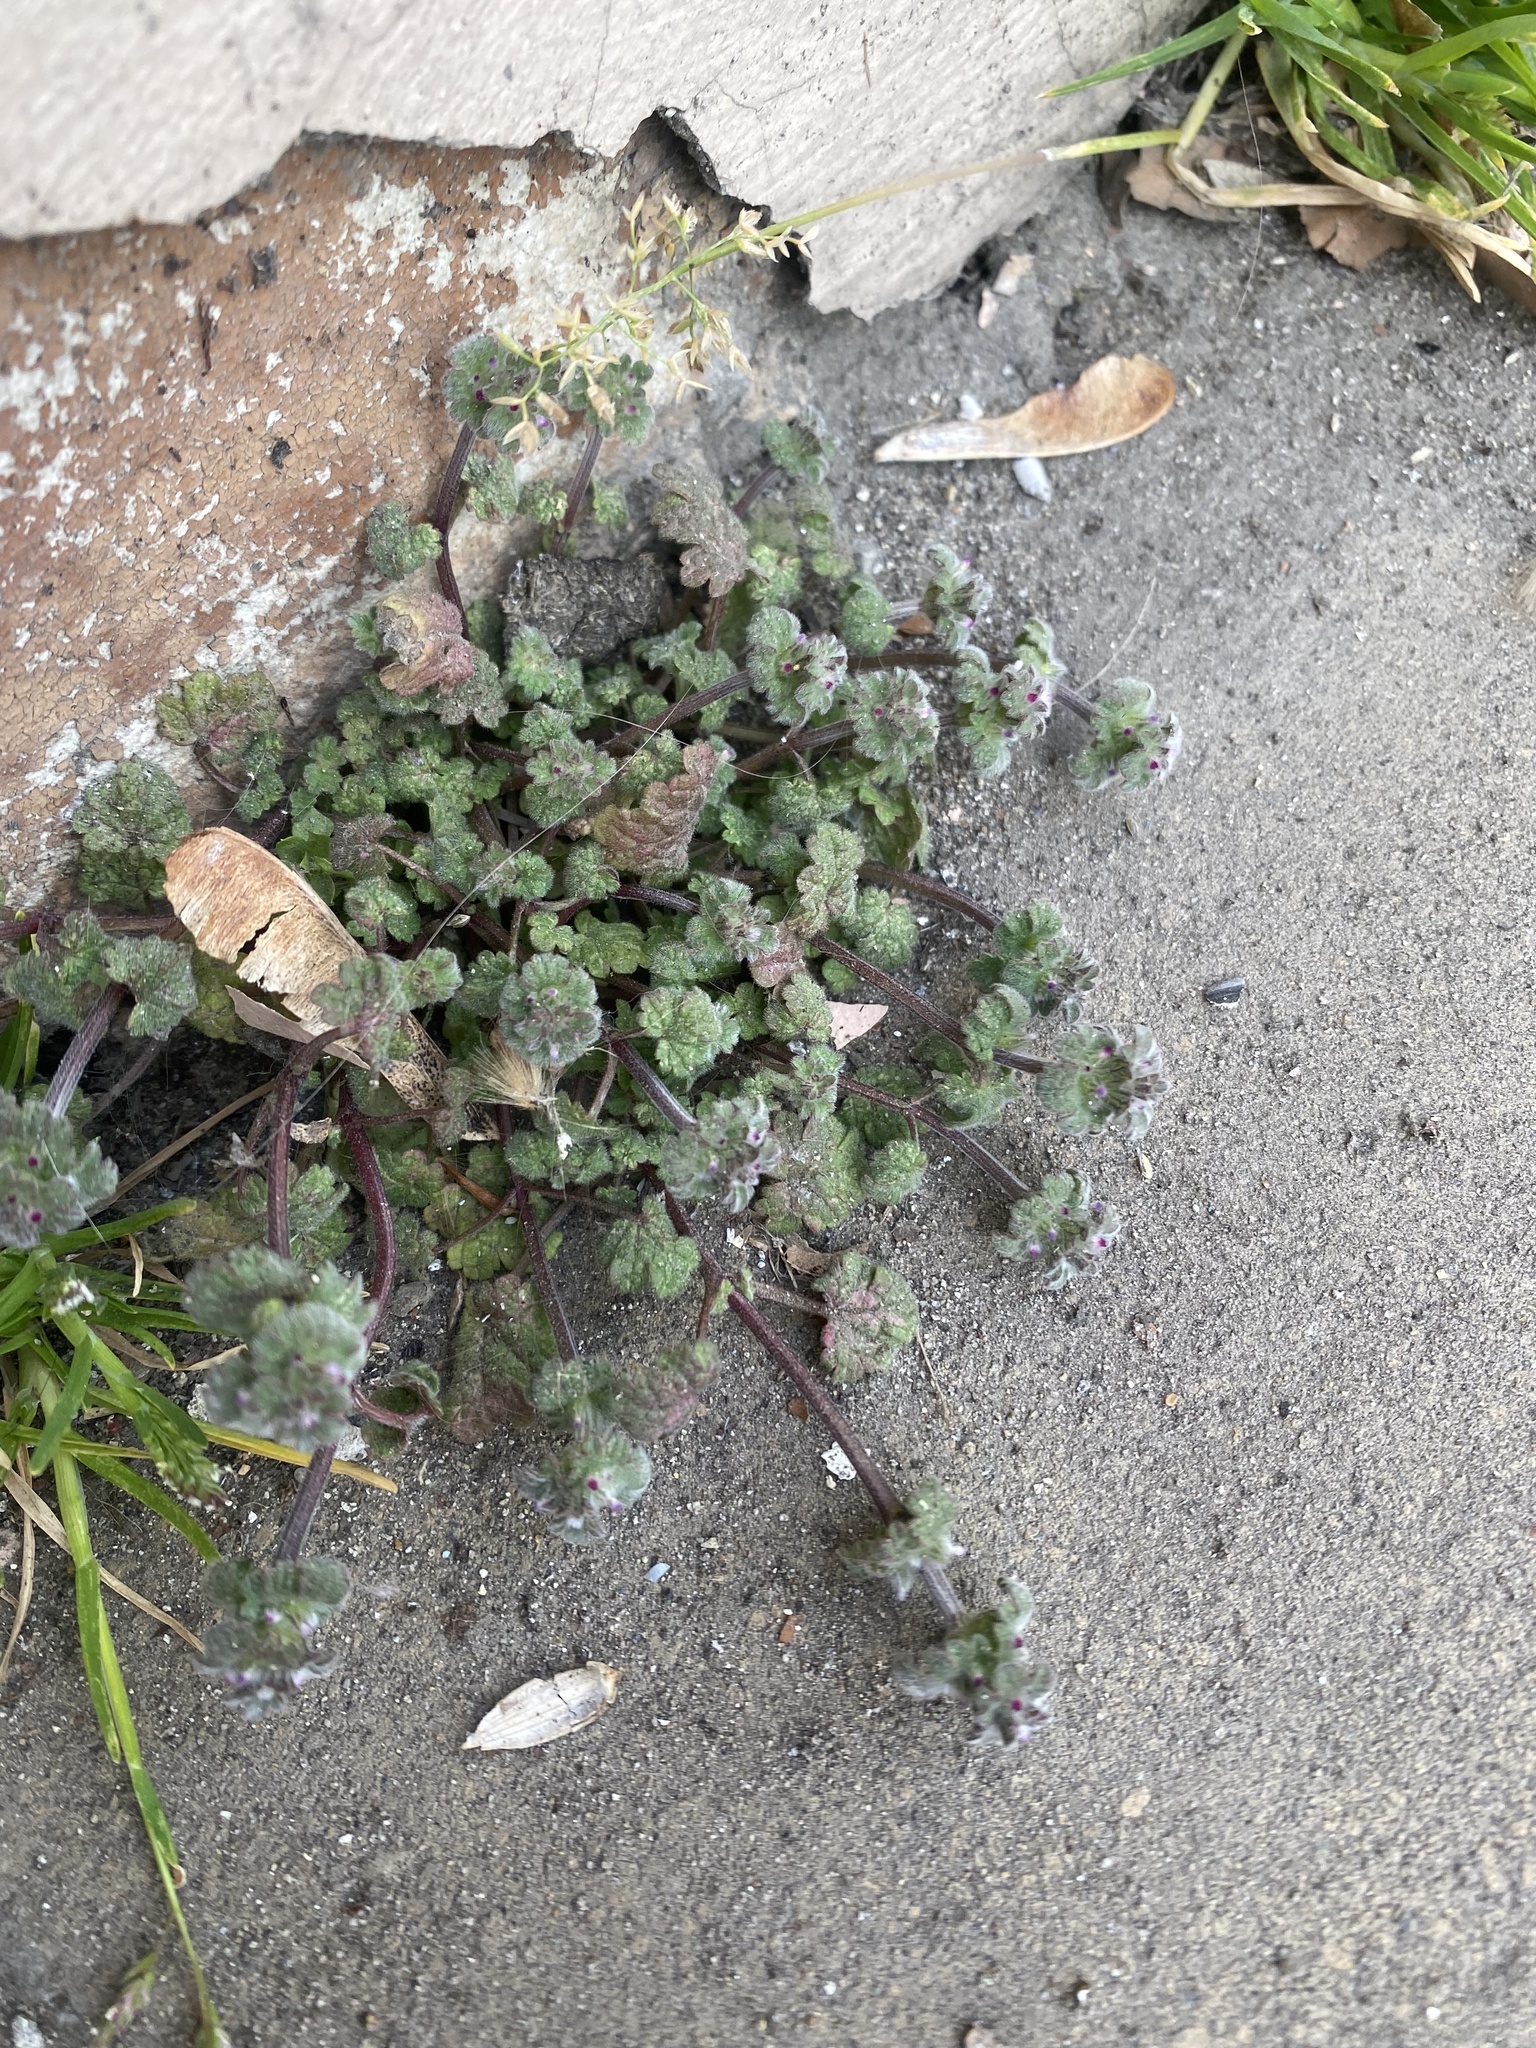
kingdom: Plantae
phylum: Tracheophyta
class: Magnoliopsida
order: Lamiales
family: Lamiaceae
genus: Lamium
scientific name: Lamium amplexicaule
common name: Henbit dead-nettle
